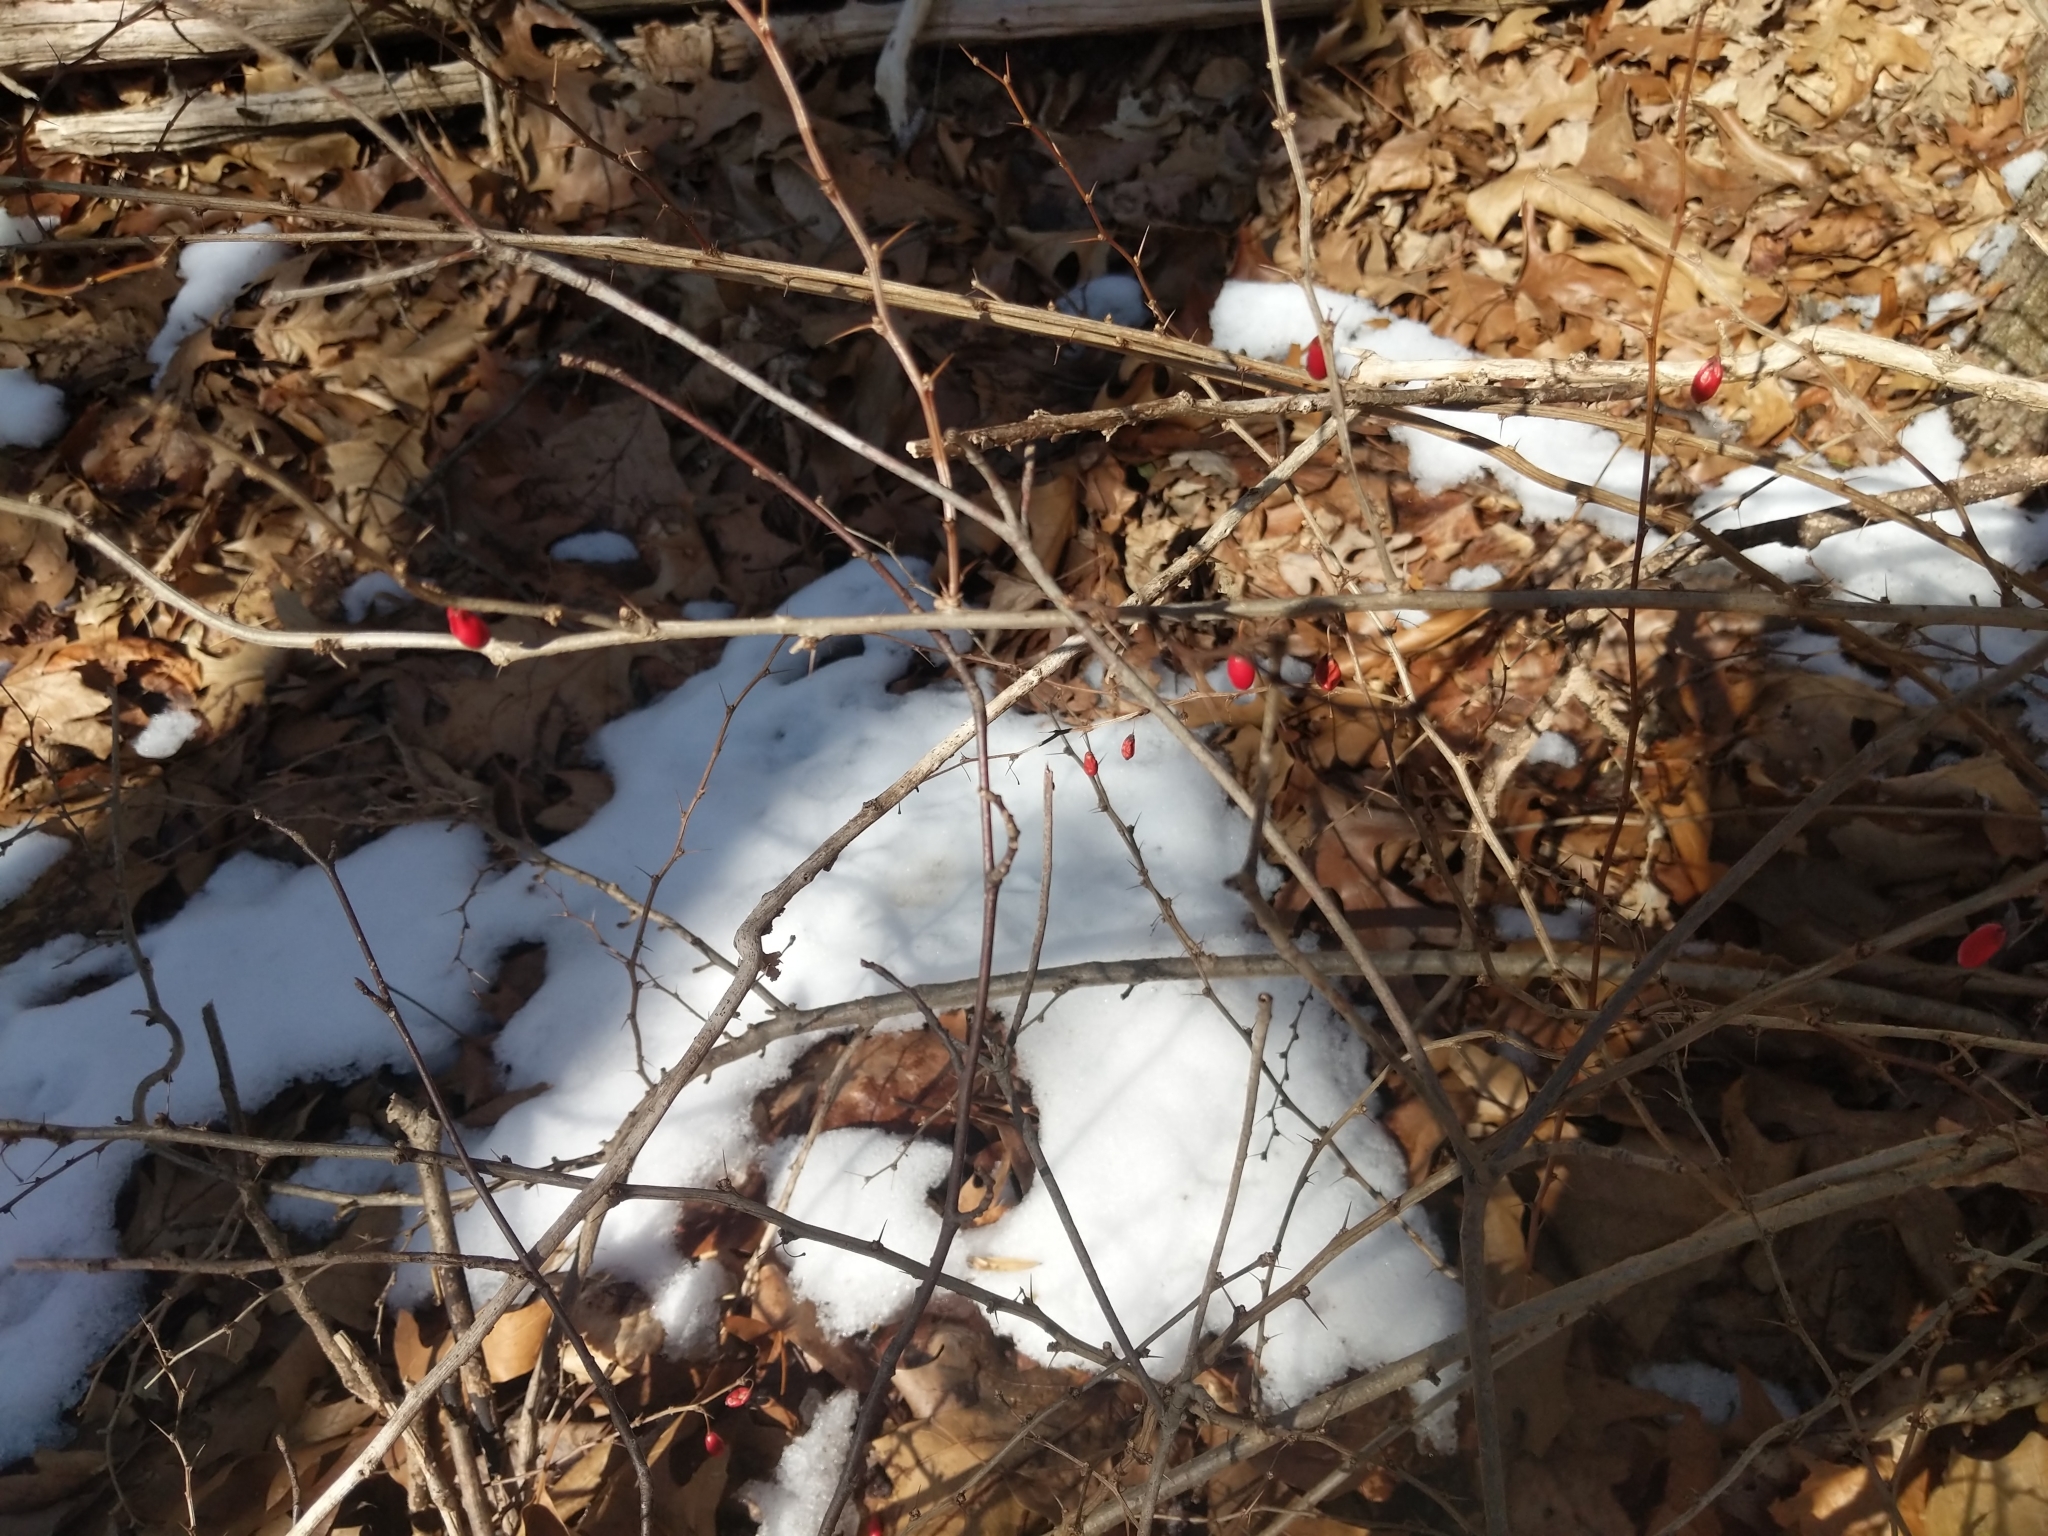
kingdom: Plantae
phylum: Tracheophyta
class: Magnoliopsida
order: Ranunculales
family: Berberidaceae
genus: Berberis
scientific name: Berberis thunbergii
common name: Japanese barberry
